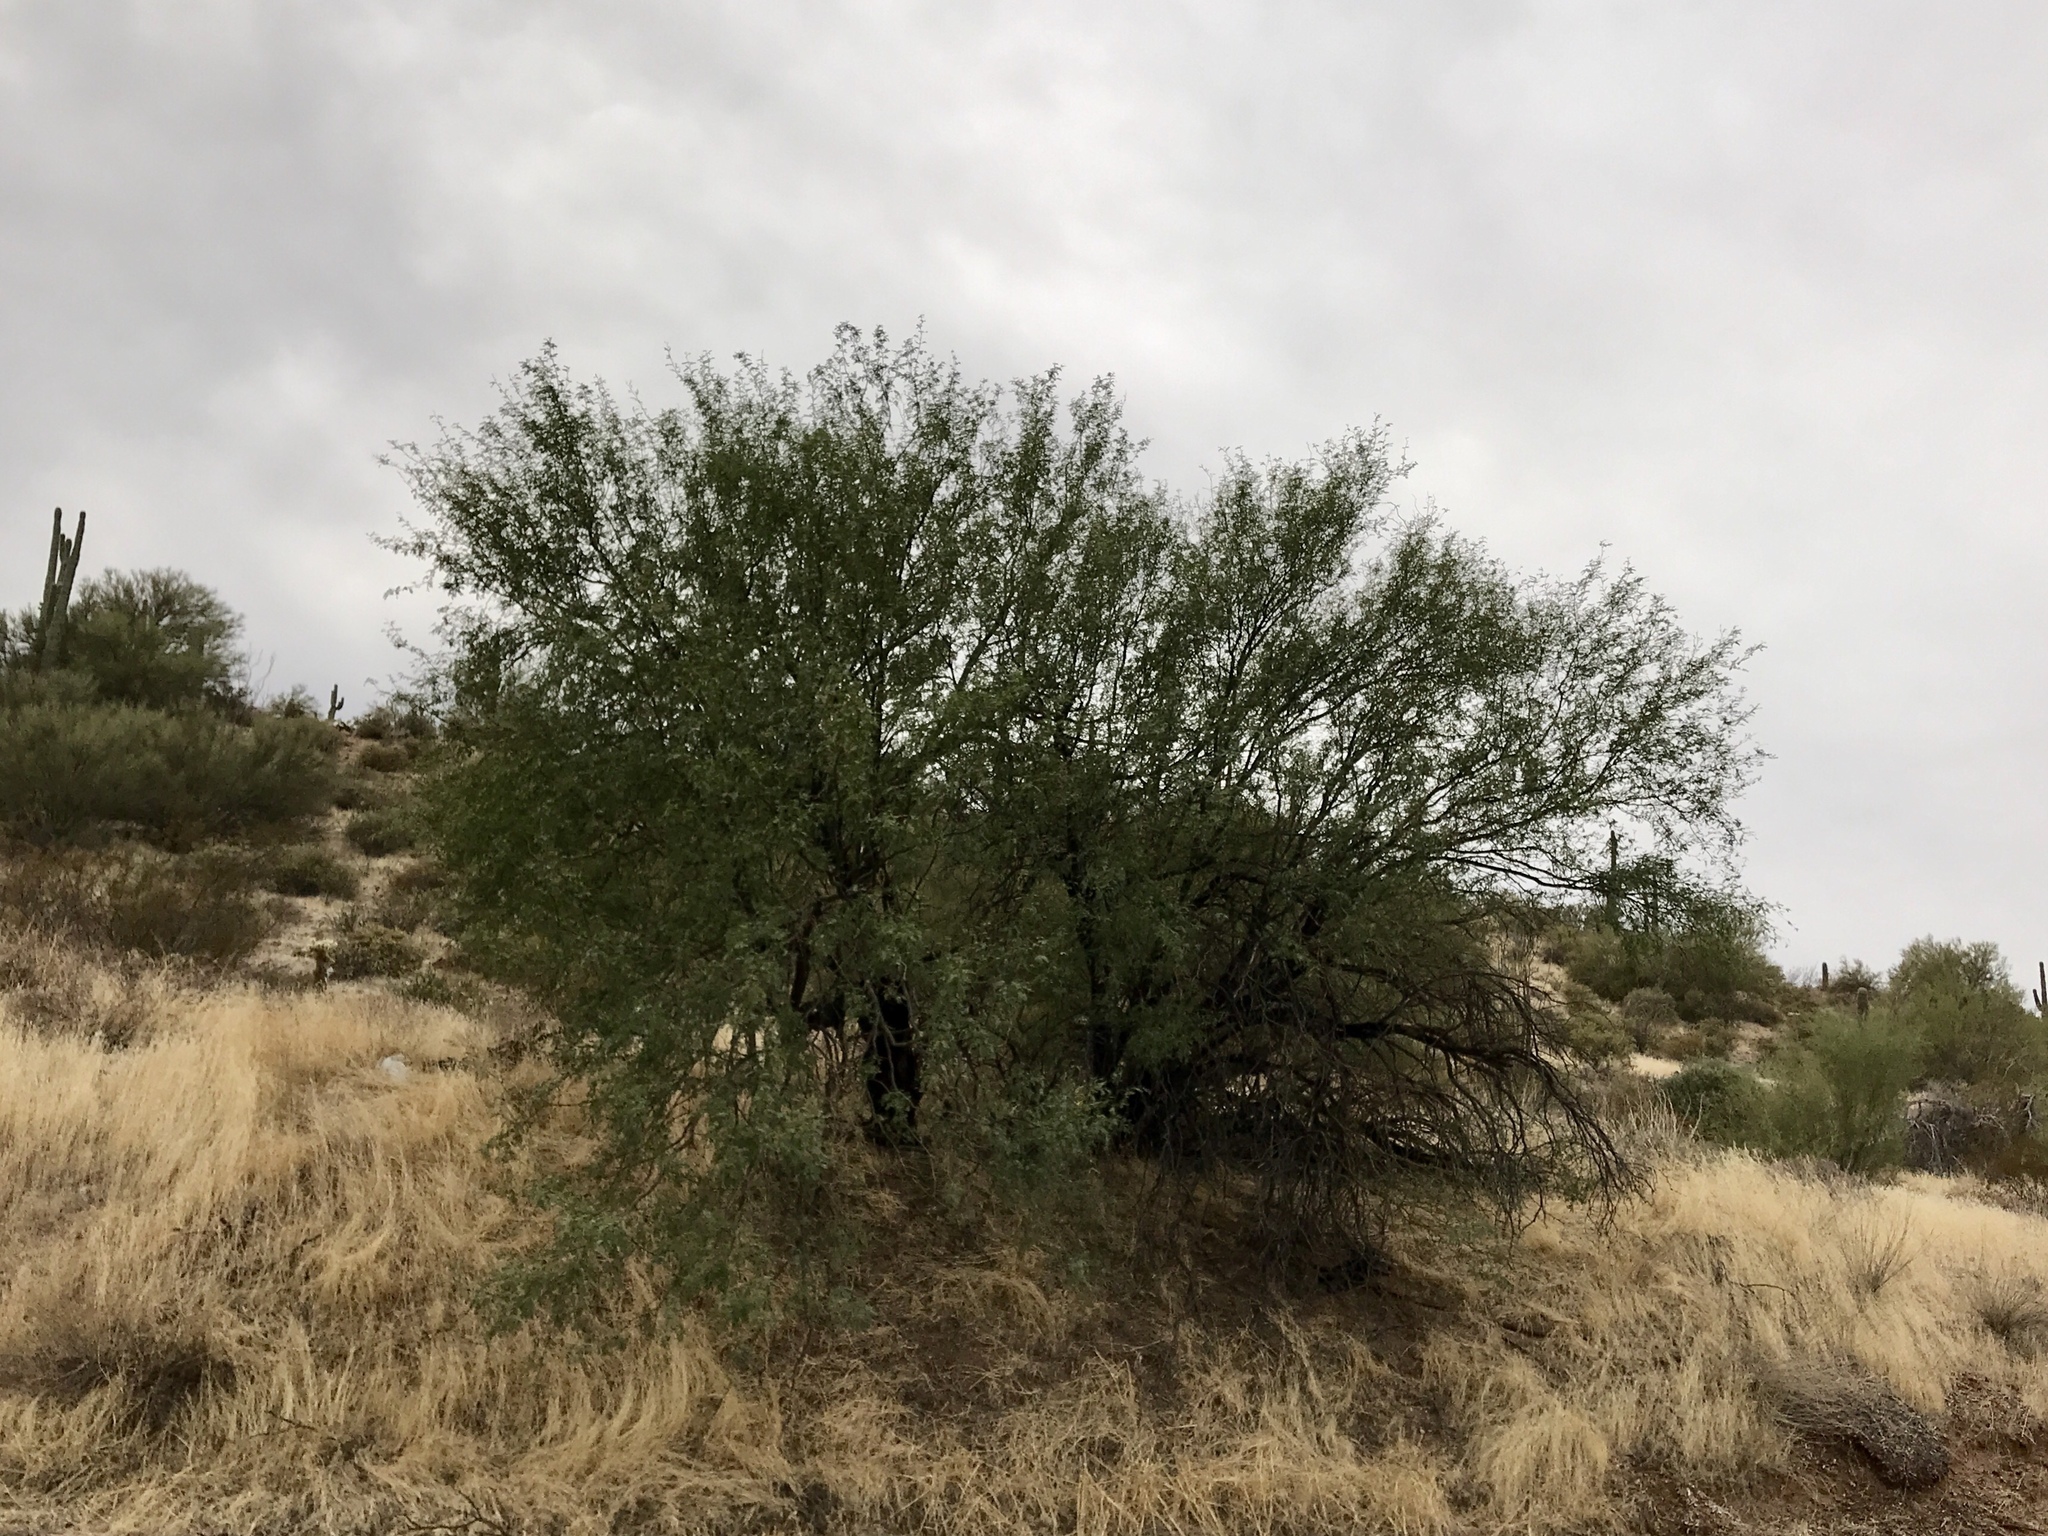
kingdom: Plantae
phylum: Tracheophyta
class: Magnoliopsida
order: Fabales
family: Fabaceae
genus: Olneya
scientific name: Olneya tesota
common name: Desert ironwood
